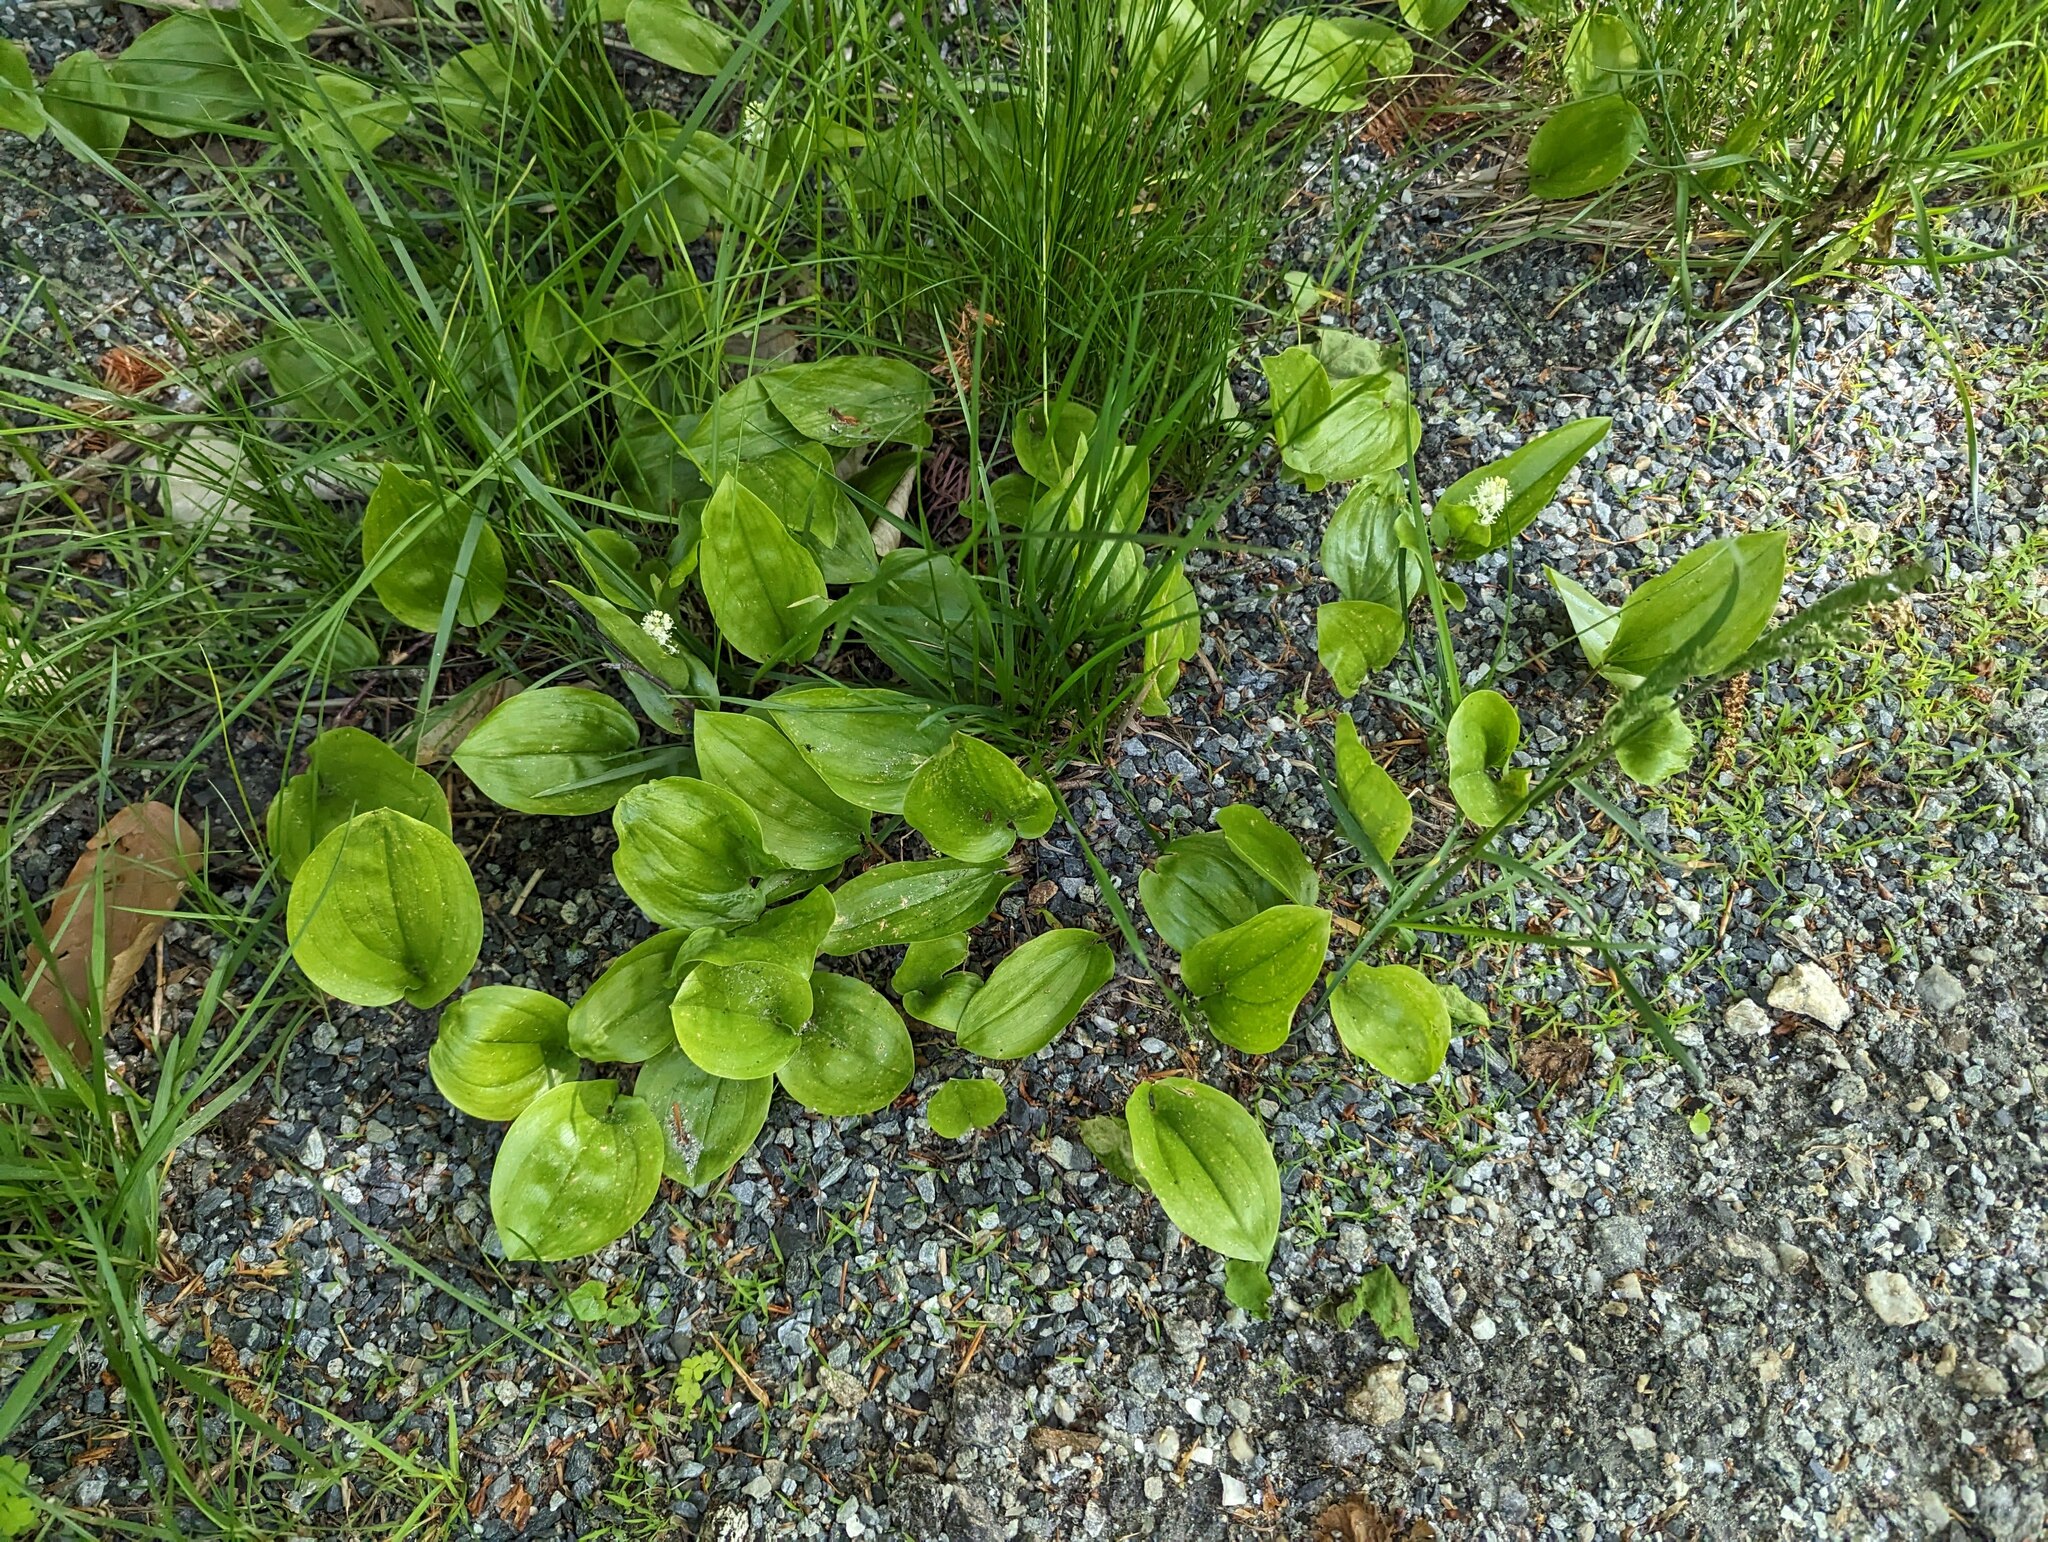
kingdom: Plantae
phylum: Tracheophyta
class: Liliopsida
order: Asparagales
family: Asparagaceae
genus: Maianthemum
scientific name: Maianthemum canadense
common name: False lily-of-the-valley
